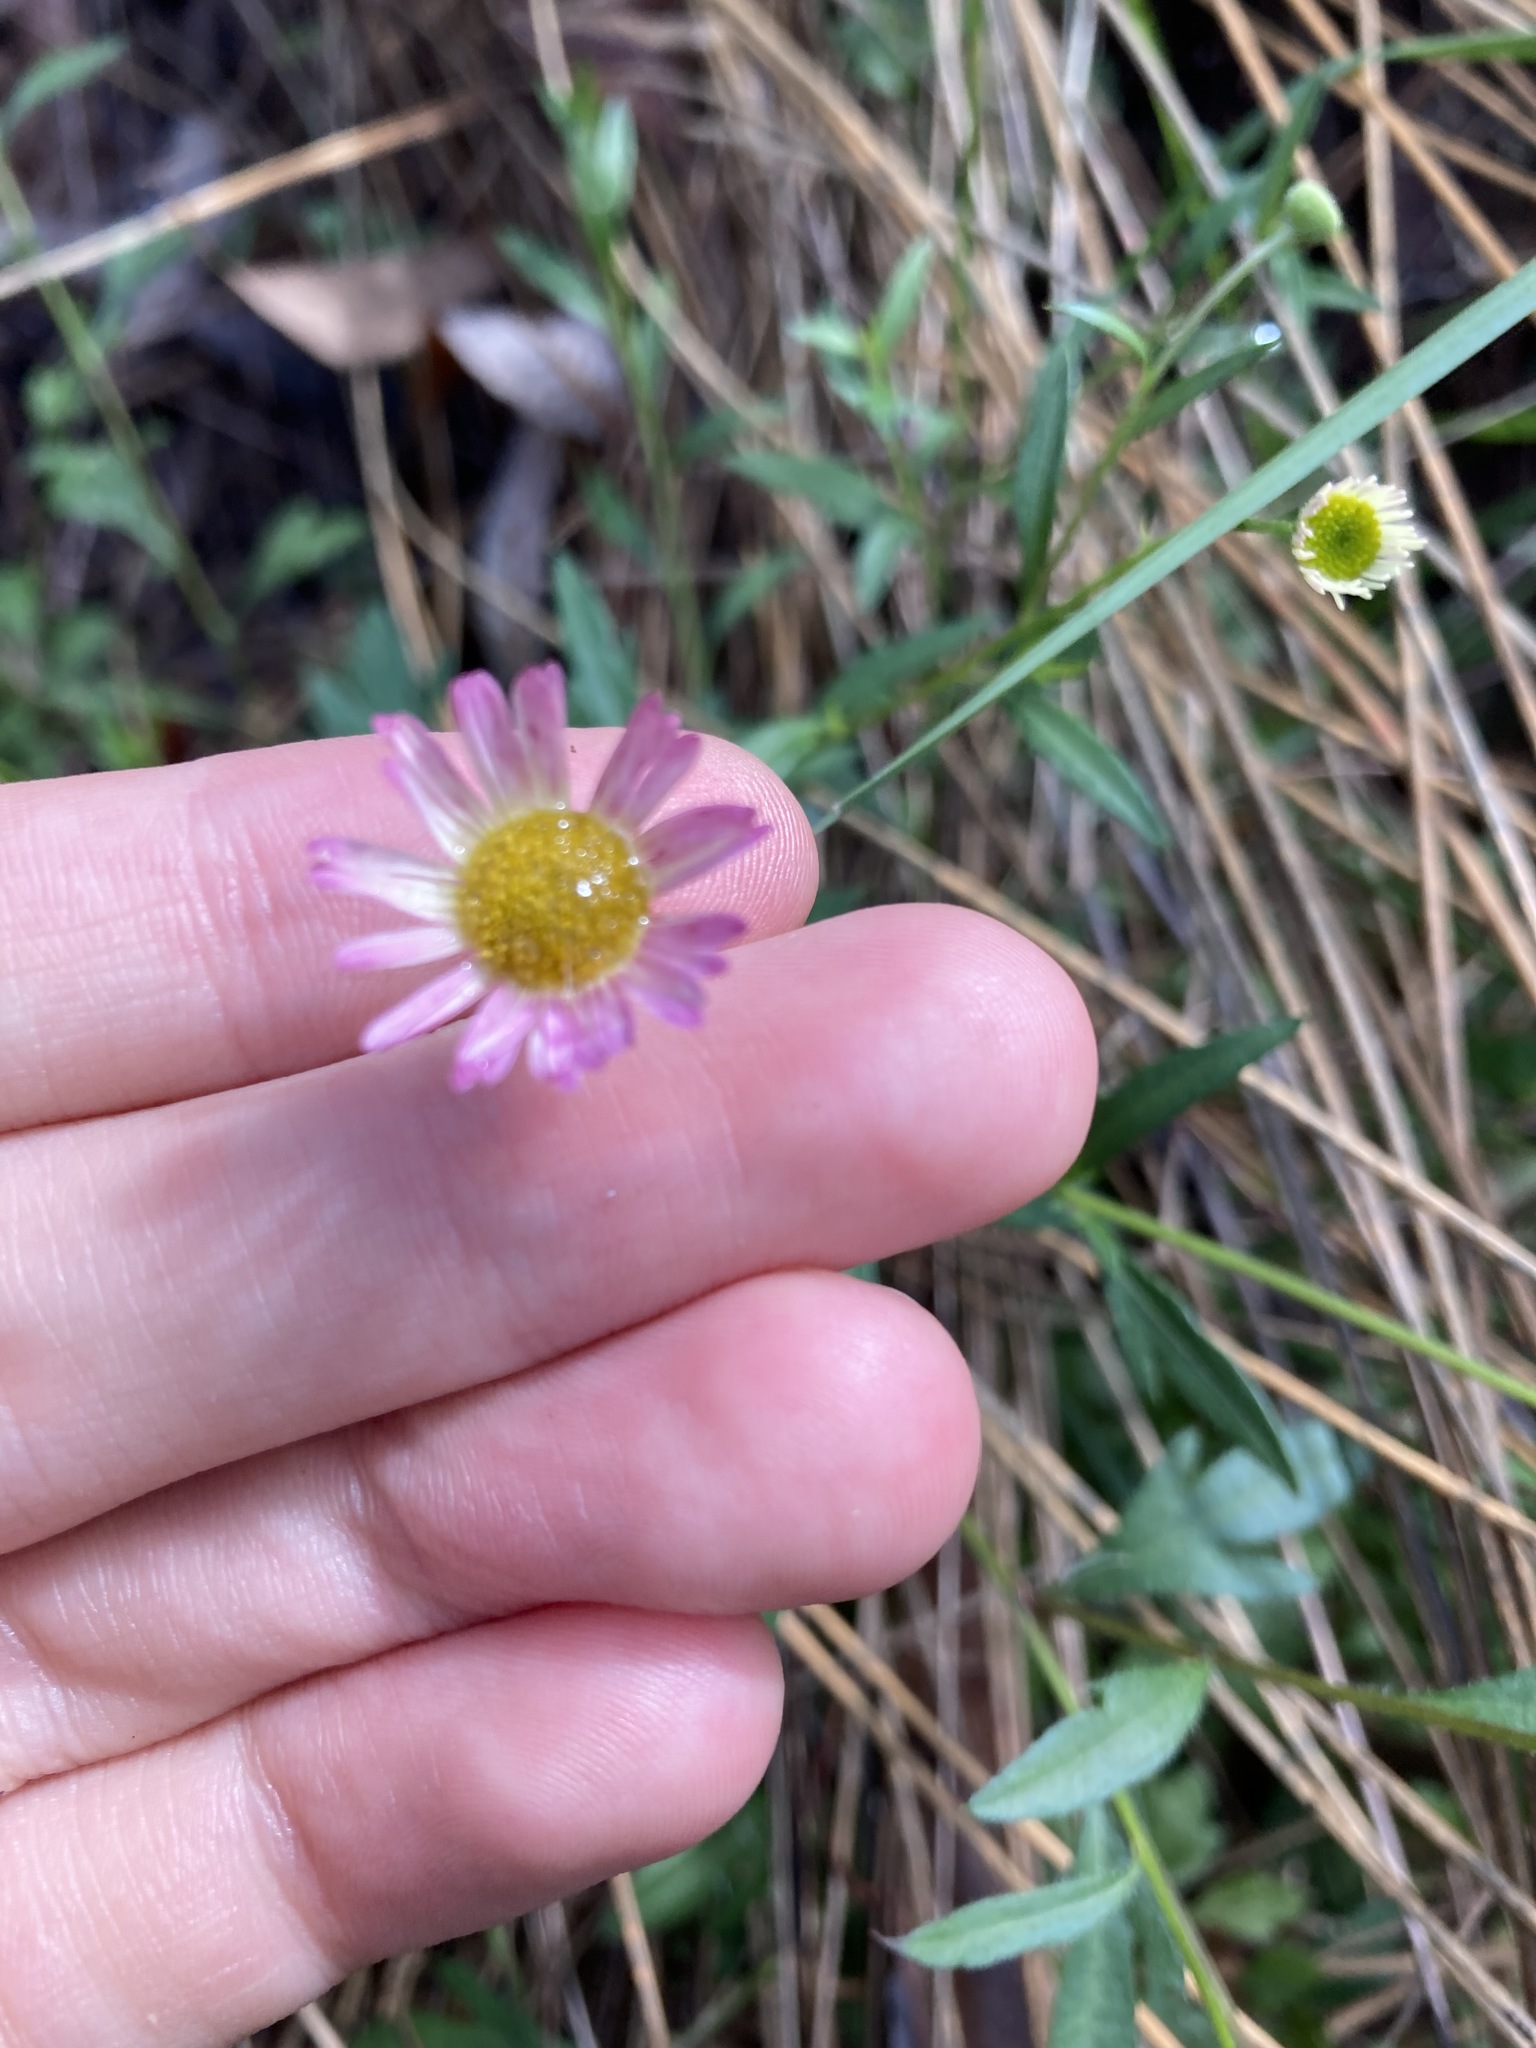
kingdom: Plantae
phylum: Tracheophyta
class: Magnoliopsida
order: Asterales
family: Asteraceae
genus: Erigeron
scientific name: Erigeron karvinskianus
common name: Mexican fleabane
